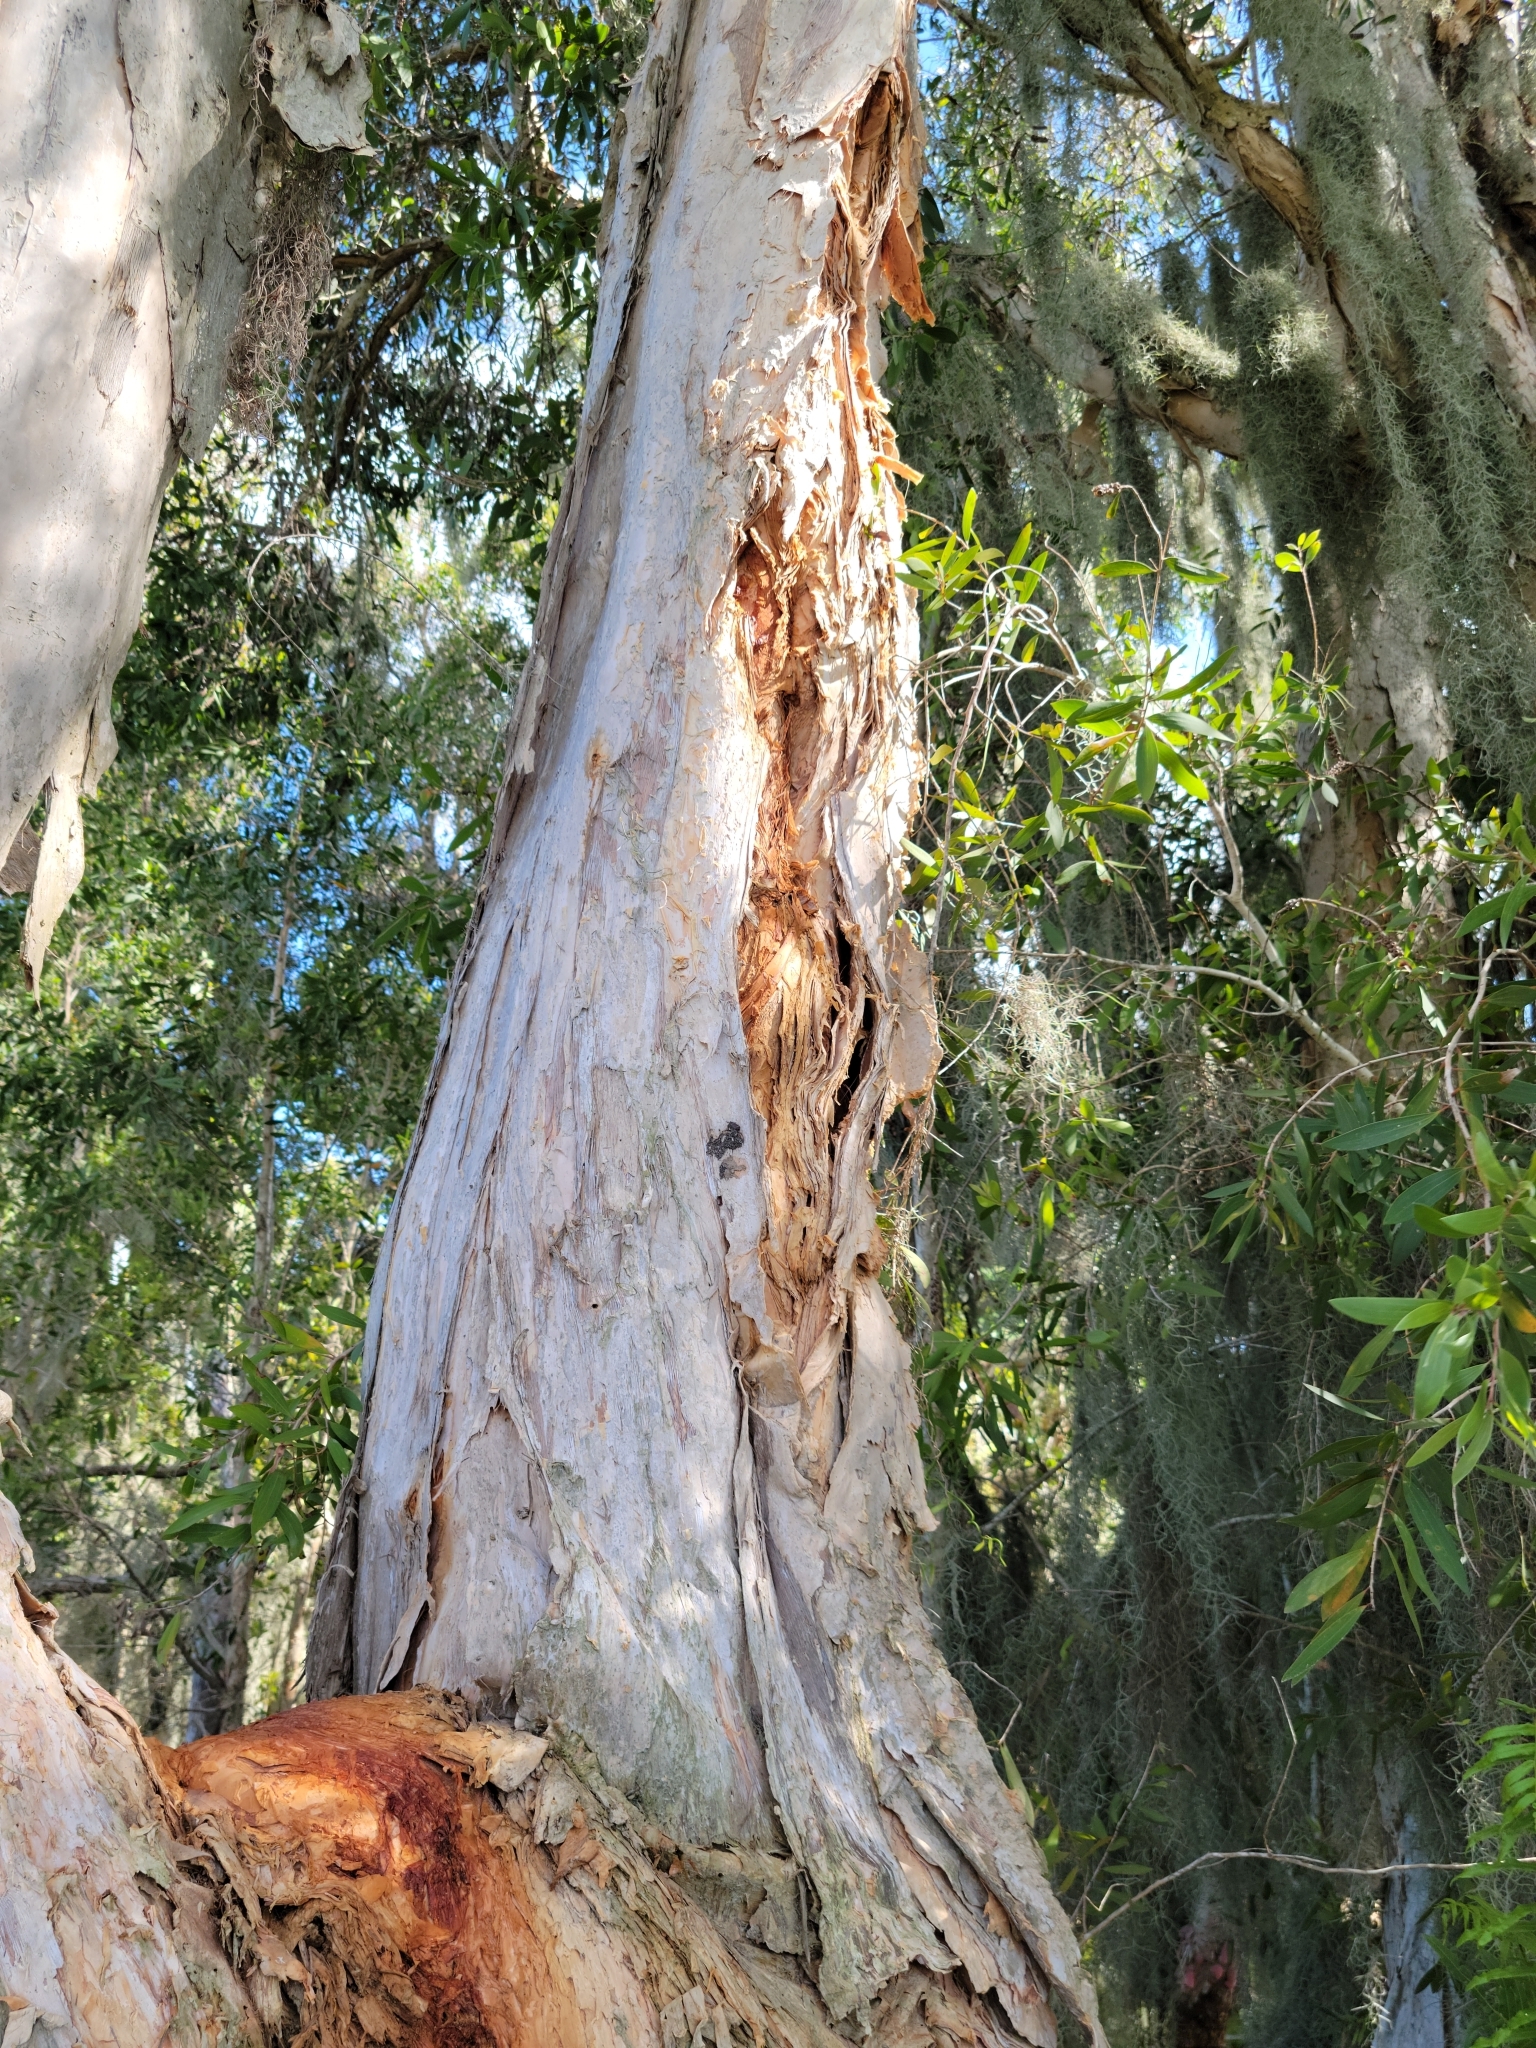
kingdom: Plantae
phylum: Tracheophyta
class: Magnoliopsida
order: Myrtales
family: Myrtaceae
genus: Melaleuca
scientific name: Melaleuca quinquenervia
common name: Punktree
